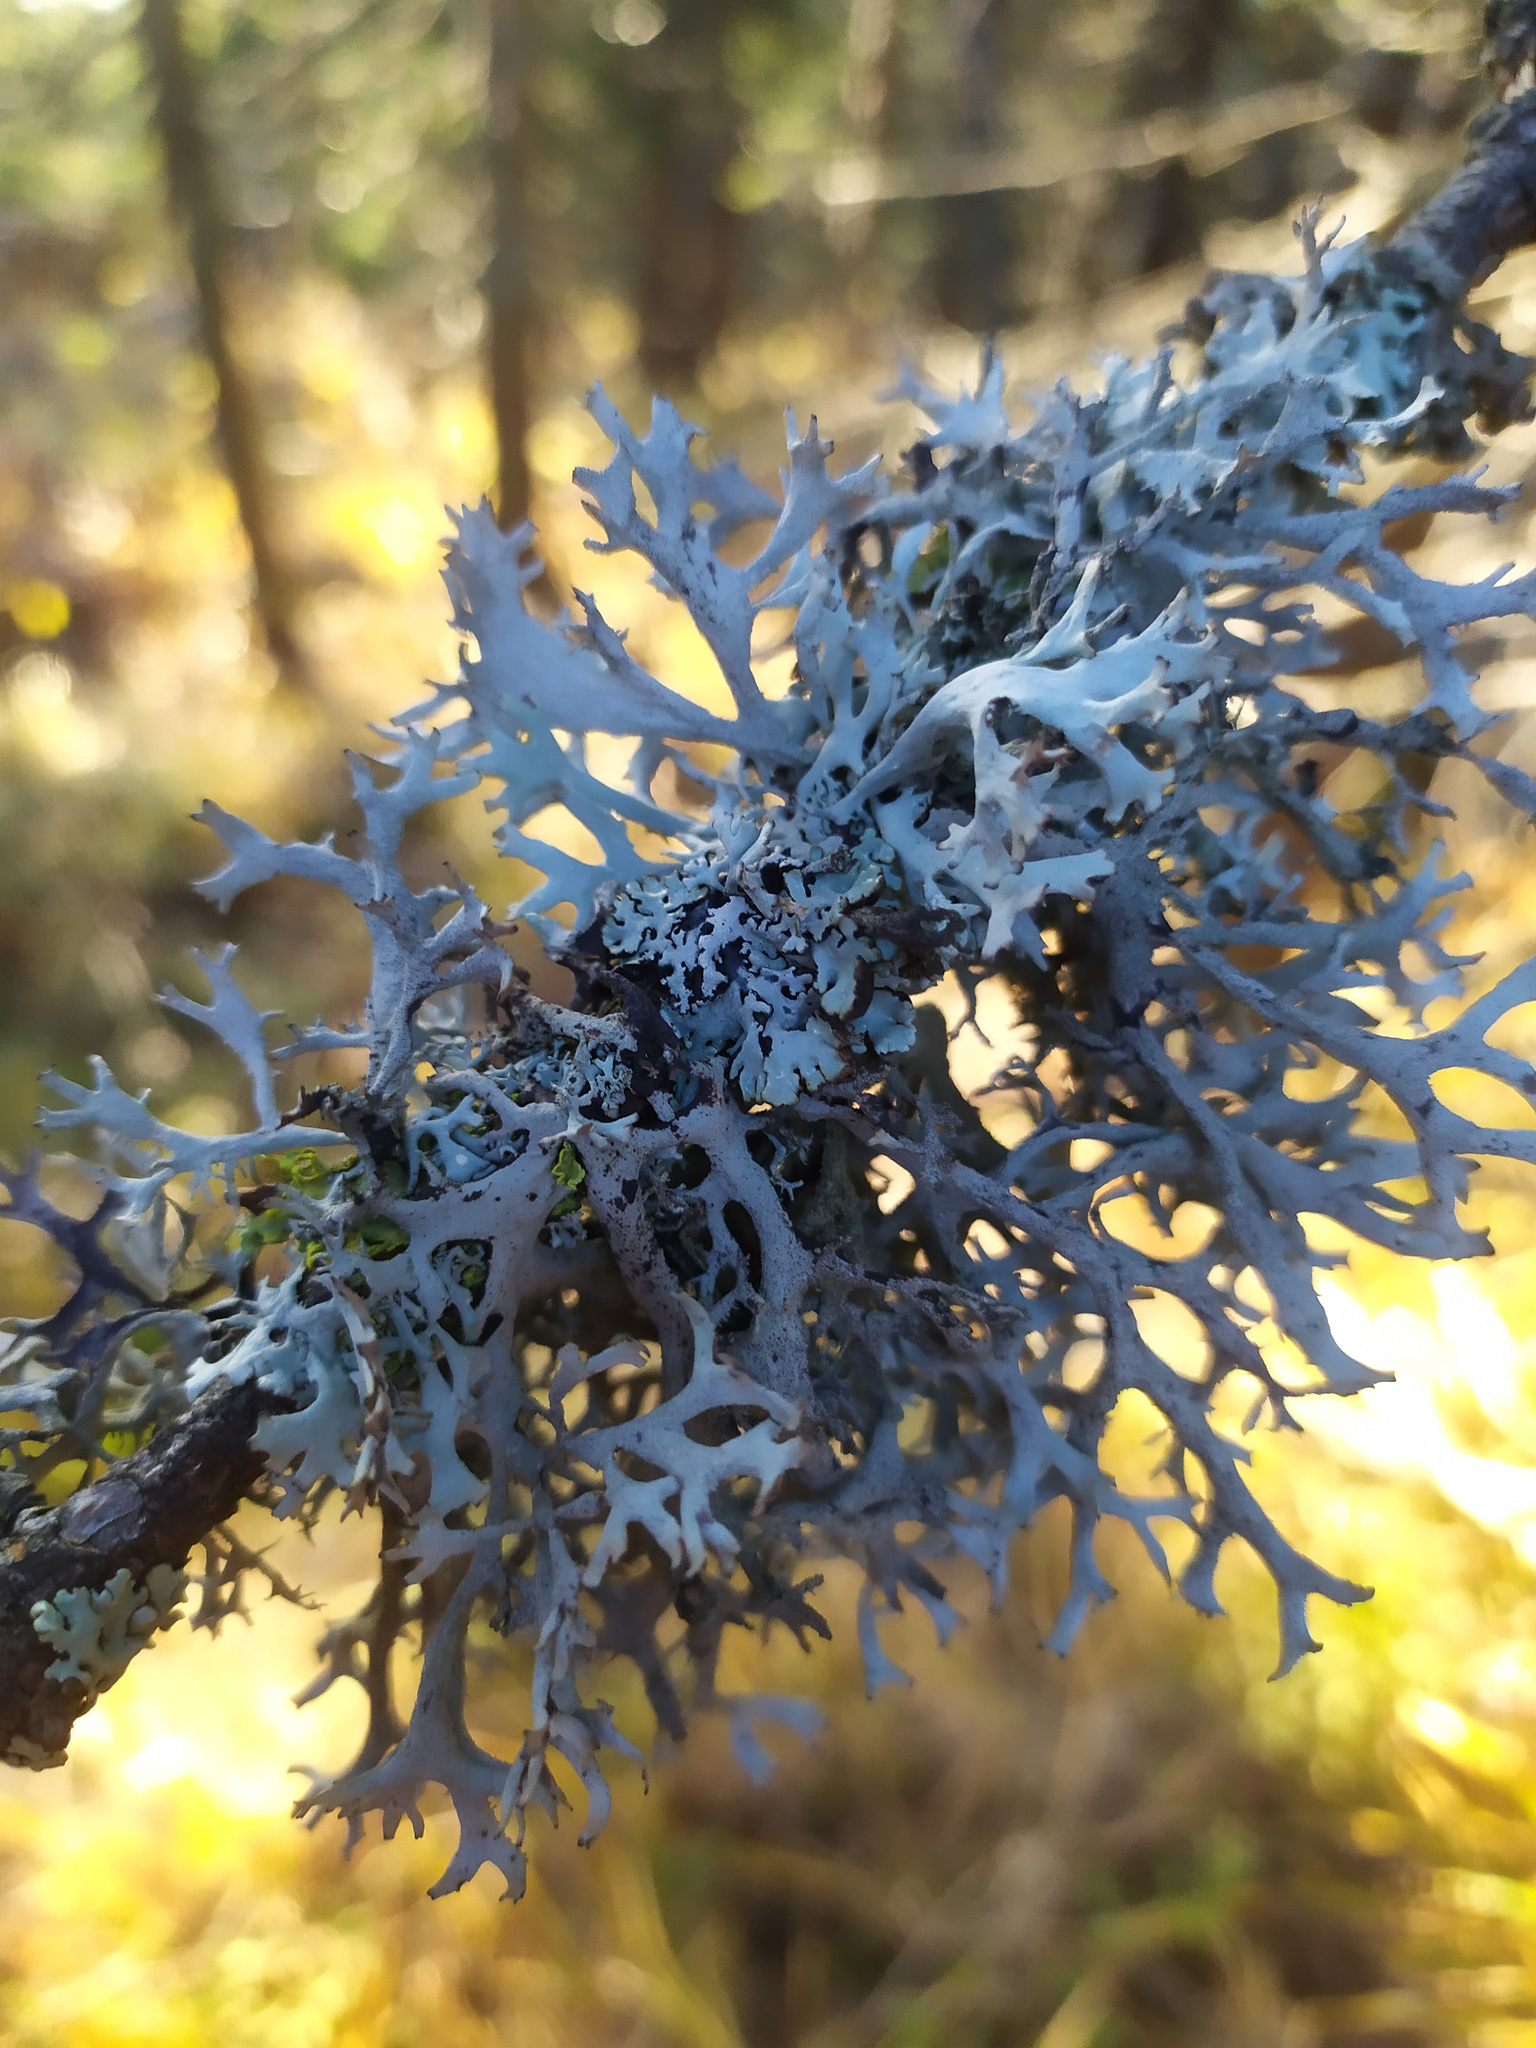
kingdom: Fungi
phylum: Ascomycota
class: Lecanoromycetes
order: Lecanorales
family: Parmeliaceae
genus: Pseudevernia
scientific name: Pseudevernia furfuracea
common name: Tree moss
